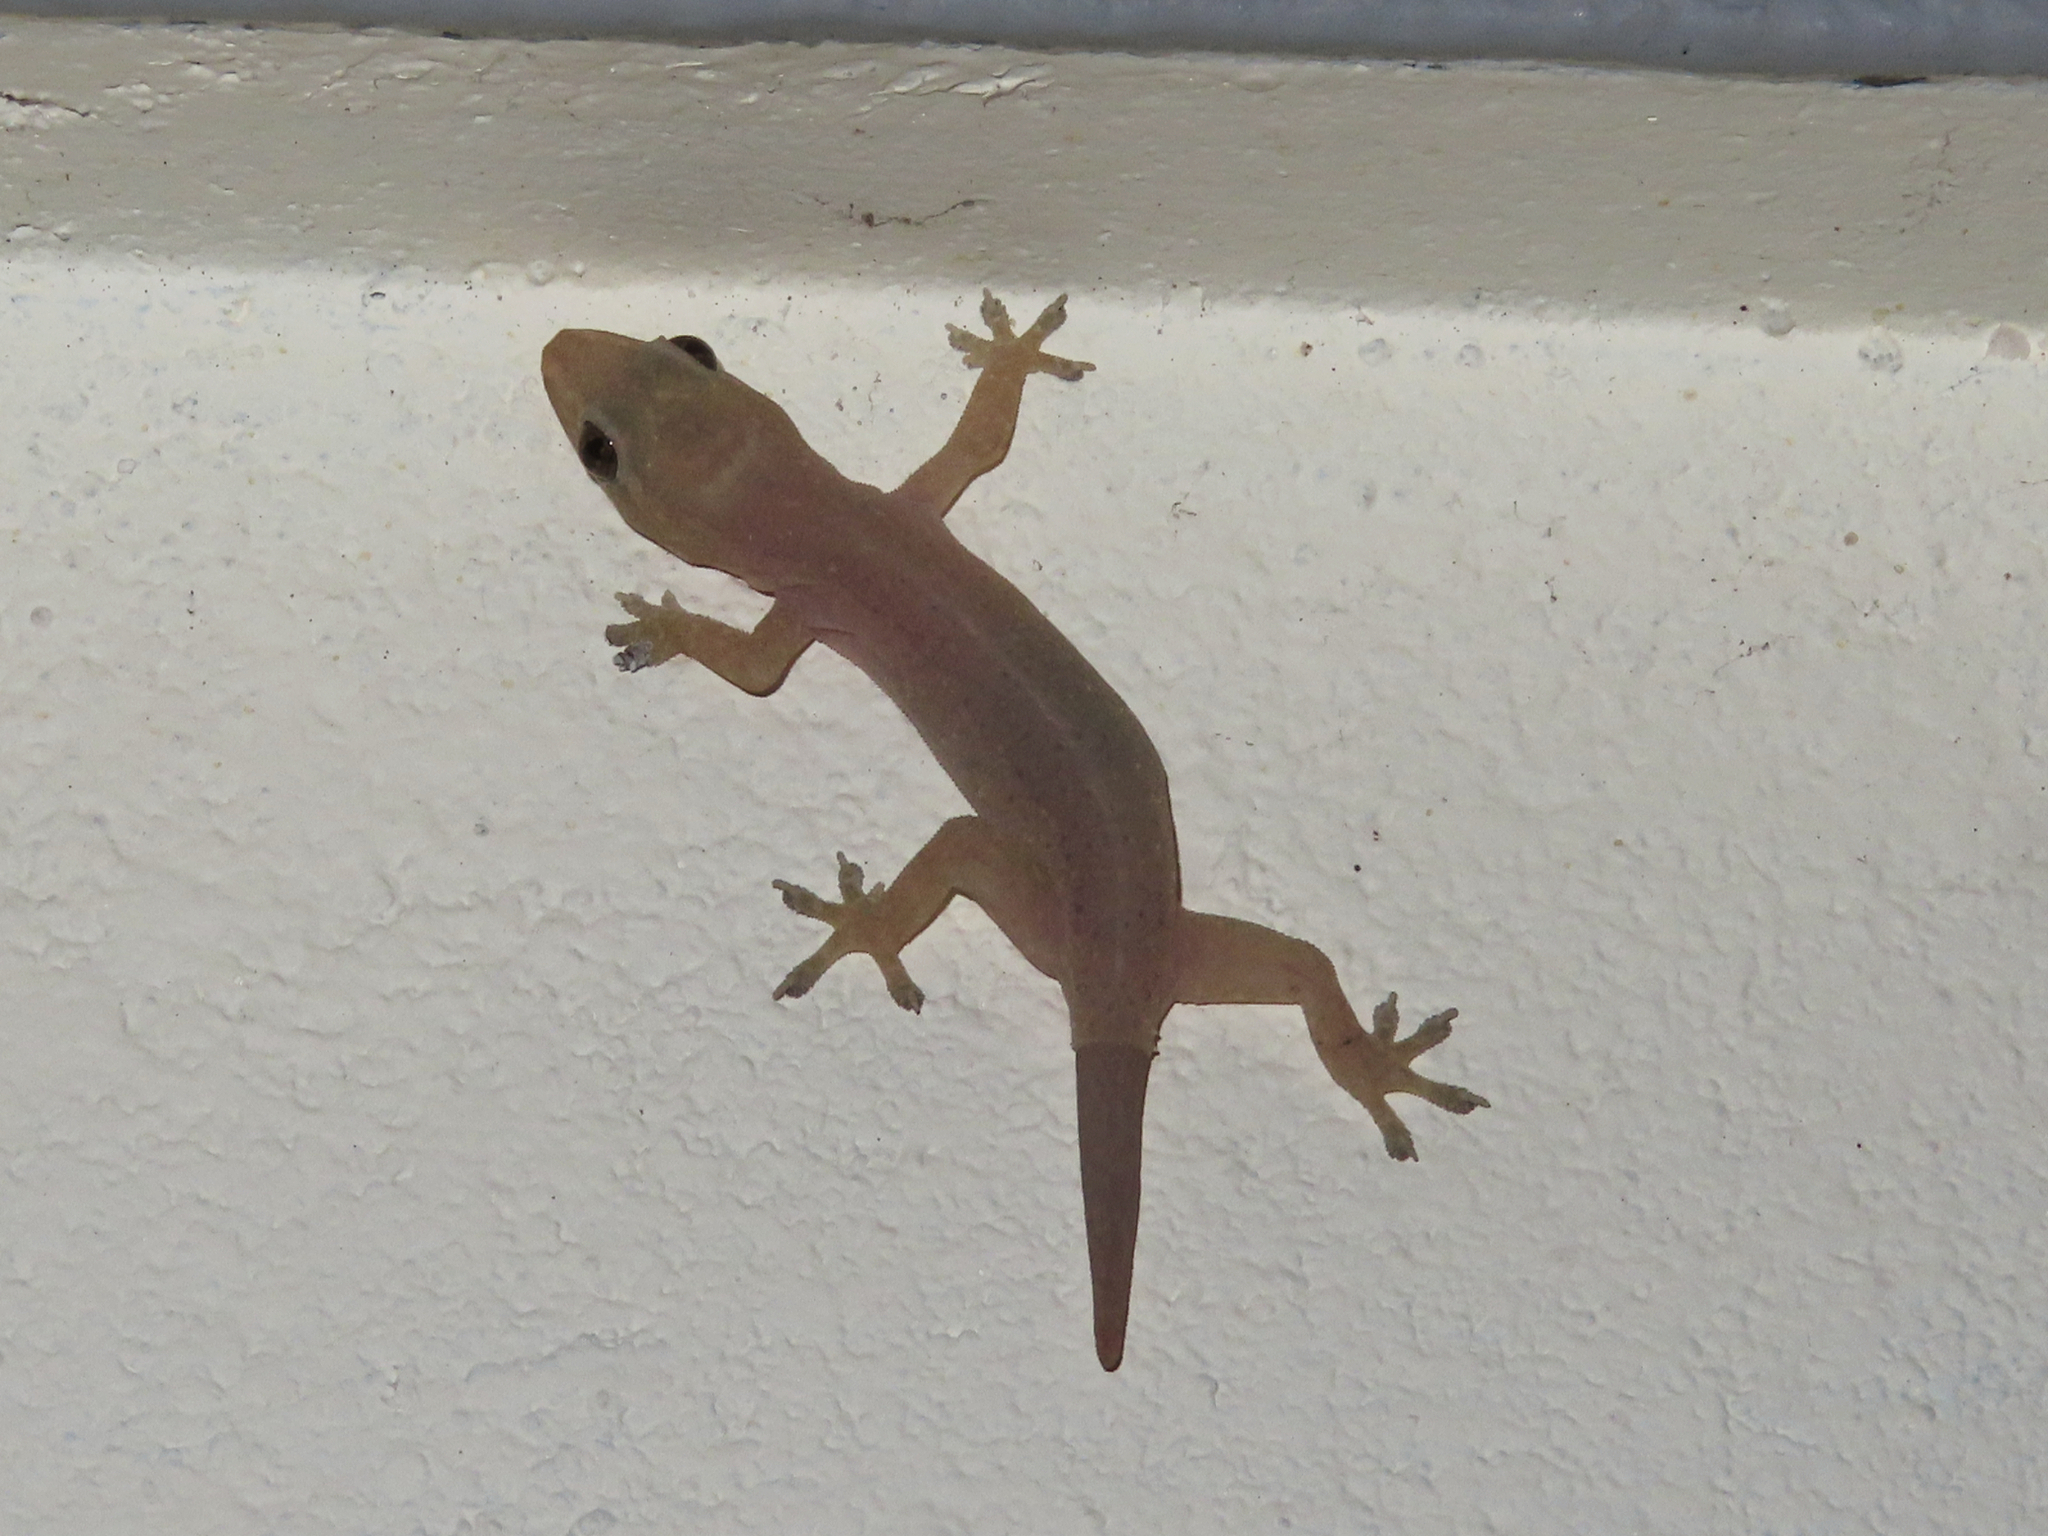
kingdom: Animalia
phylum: Chordata
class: Squamata
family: Gekkonidae
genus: Hemidactylus
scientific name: Hemidactylus frenatus
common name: Common house gecko
